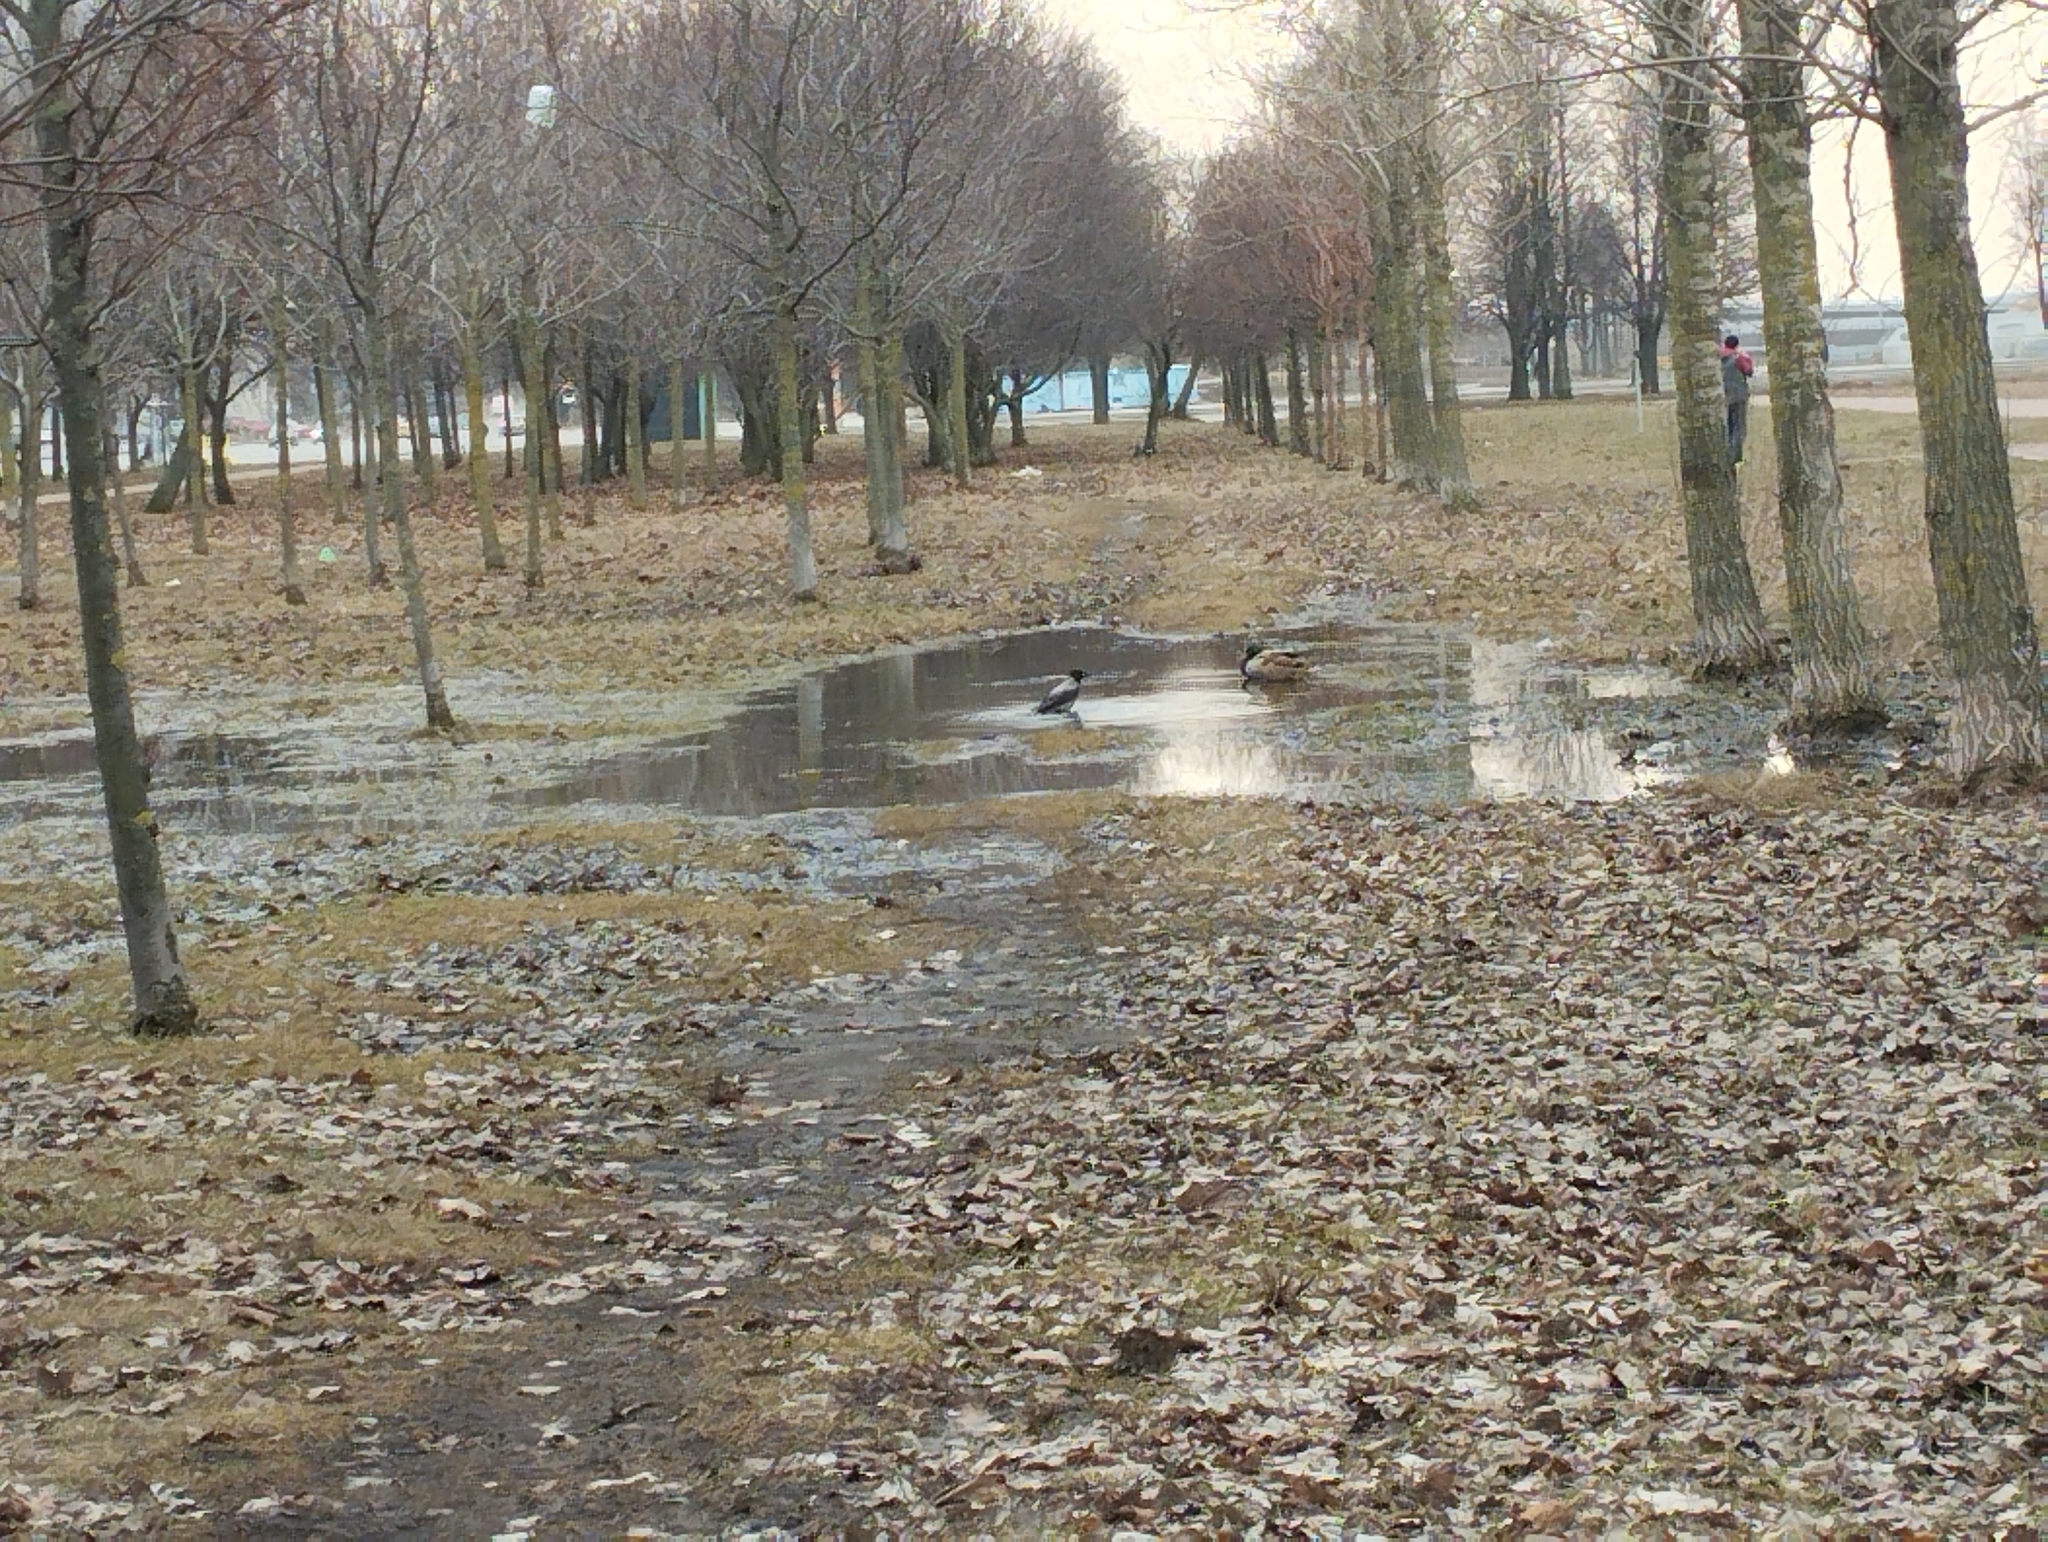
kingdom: Animalia
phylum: Chordata
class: Aves
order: Passeriformes
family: Corvidae
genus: Corvus
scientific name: Corvus cornix
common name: Hooded crow
